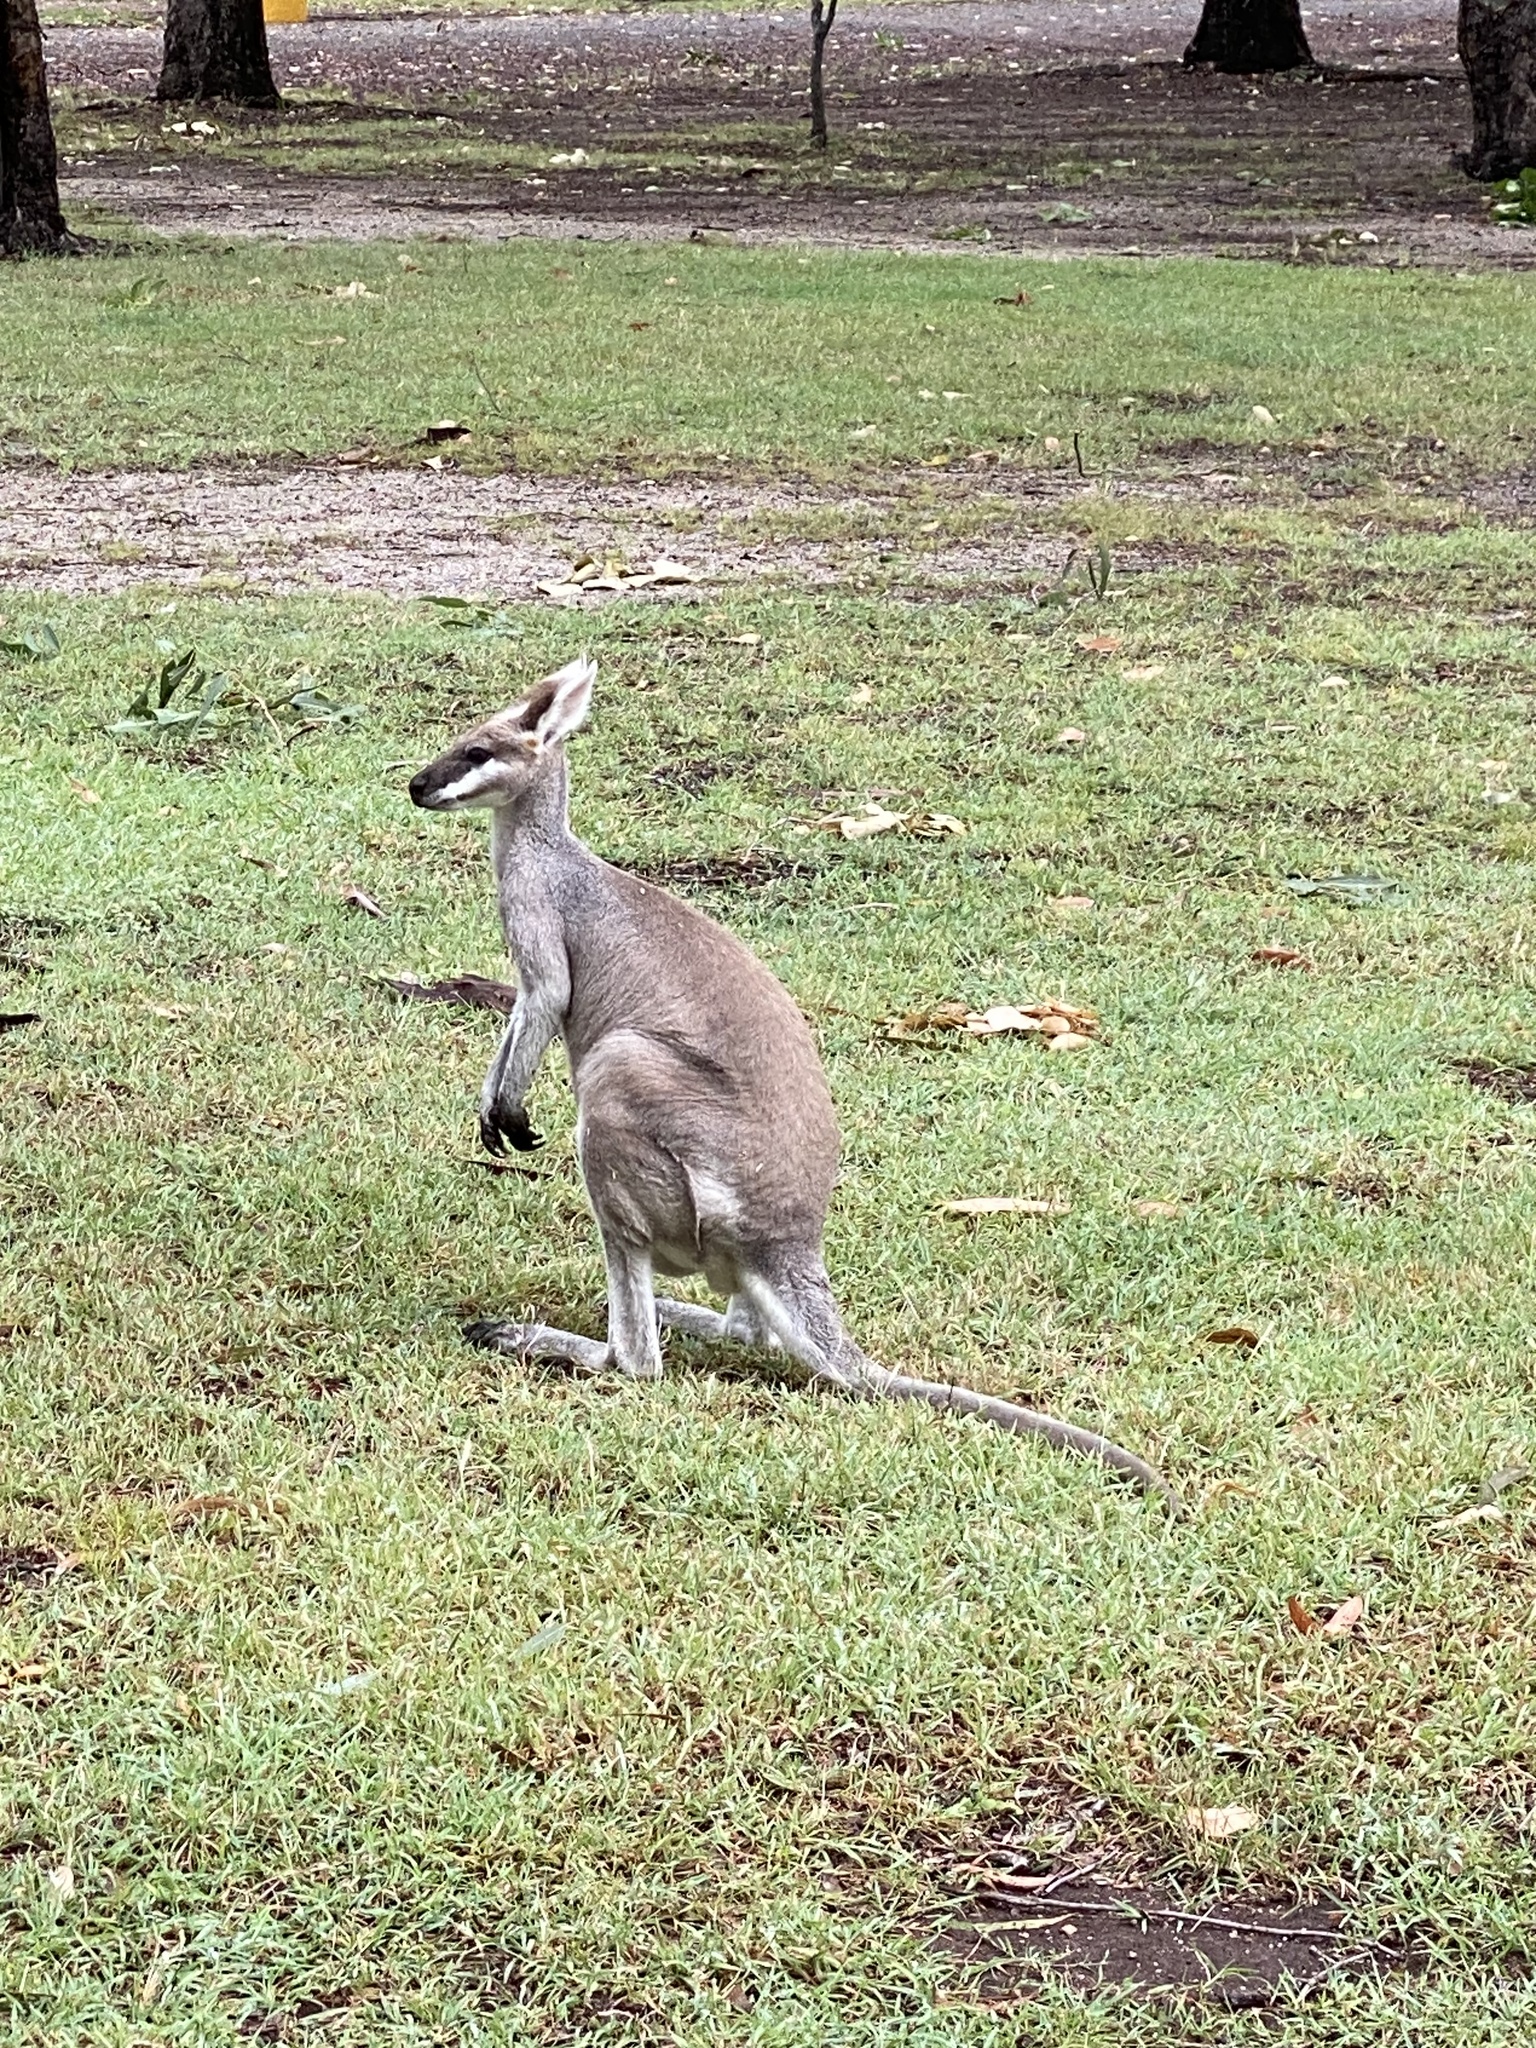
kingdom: Animalia
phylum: Chordata
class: Mammalia
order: Diprotodontia
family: Macropodidae
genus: Notamacropus
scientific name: Notamacropus parryi
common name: Whip-tailed wallaby
